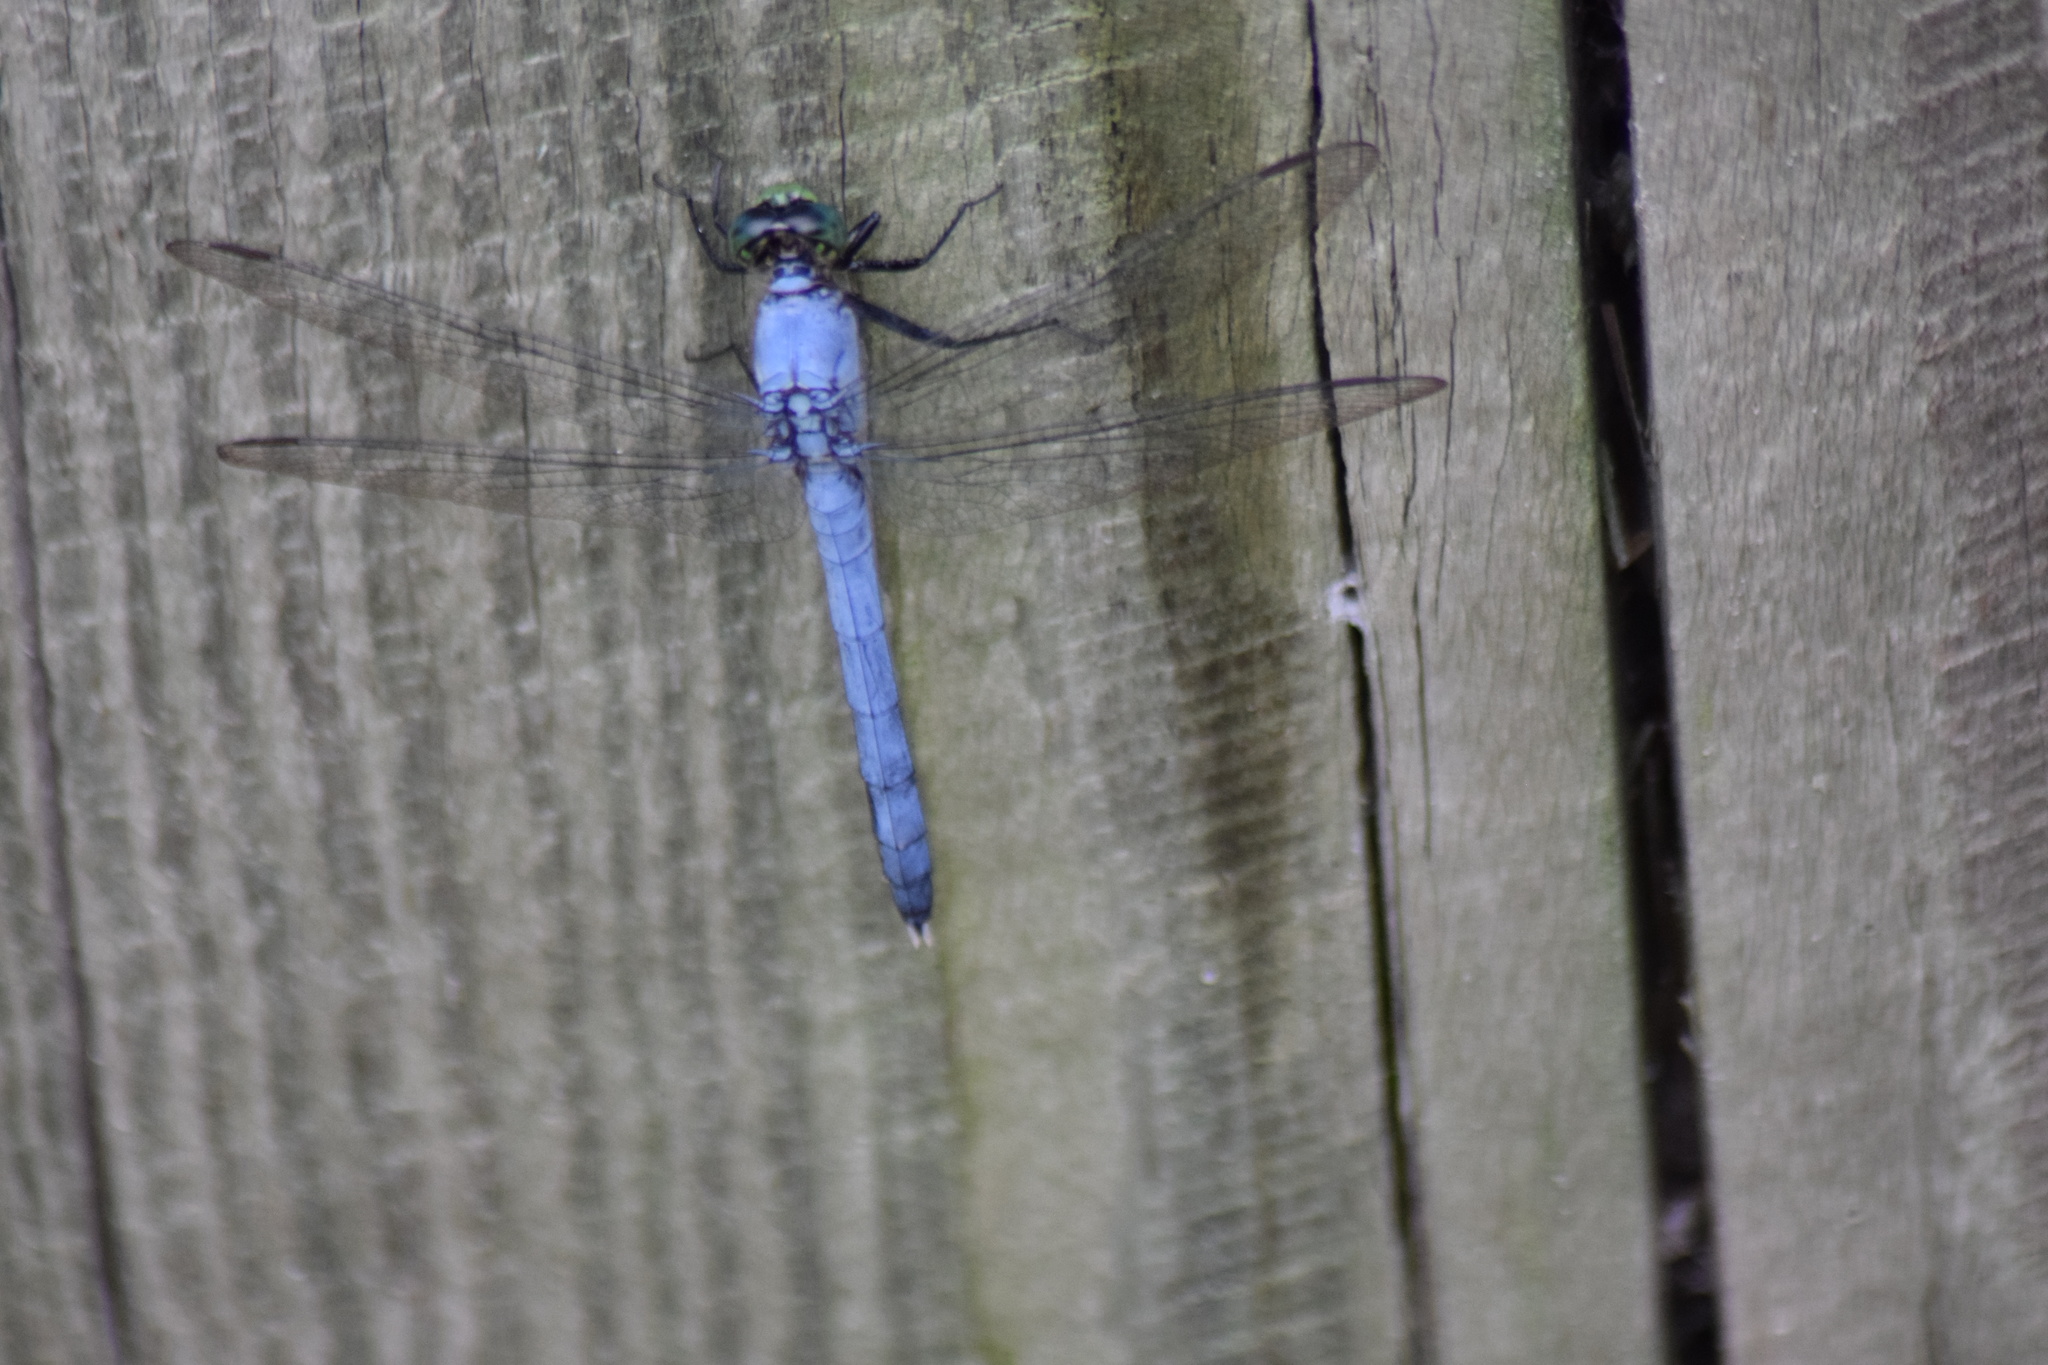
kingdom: Animalia
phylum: Arthropoda
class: Insecta
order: Odonata
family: Libellulidae
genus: Erythemis
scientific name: Erythemis simplicicollis
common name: Eastern pondhawk
